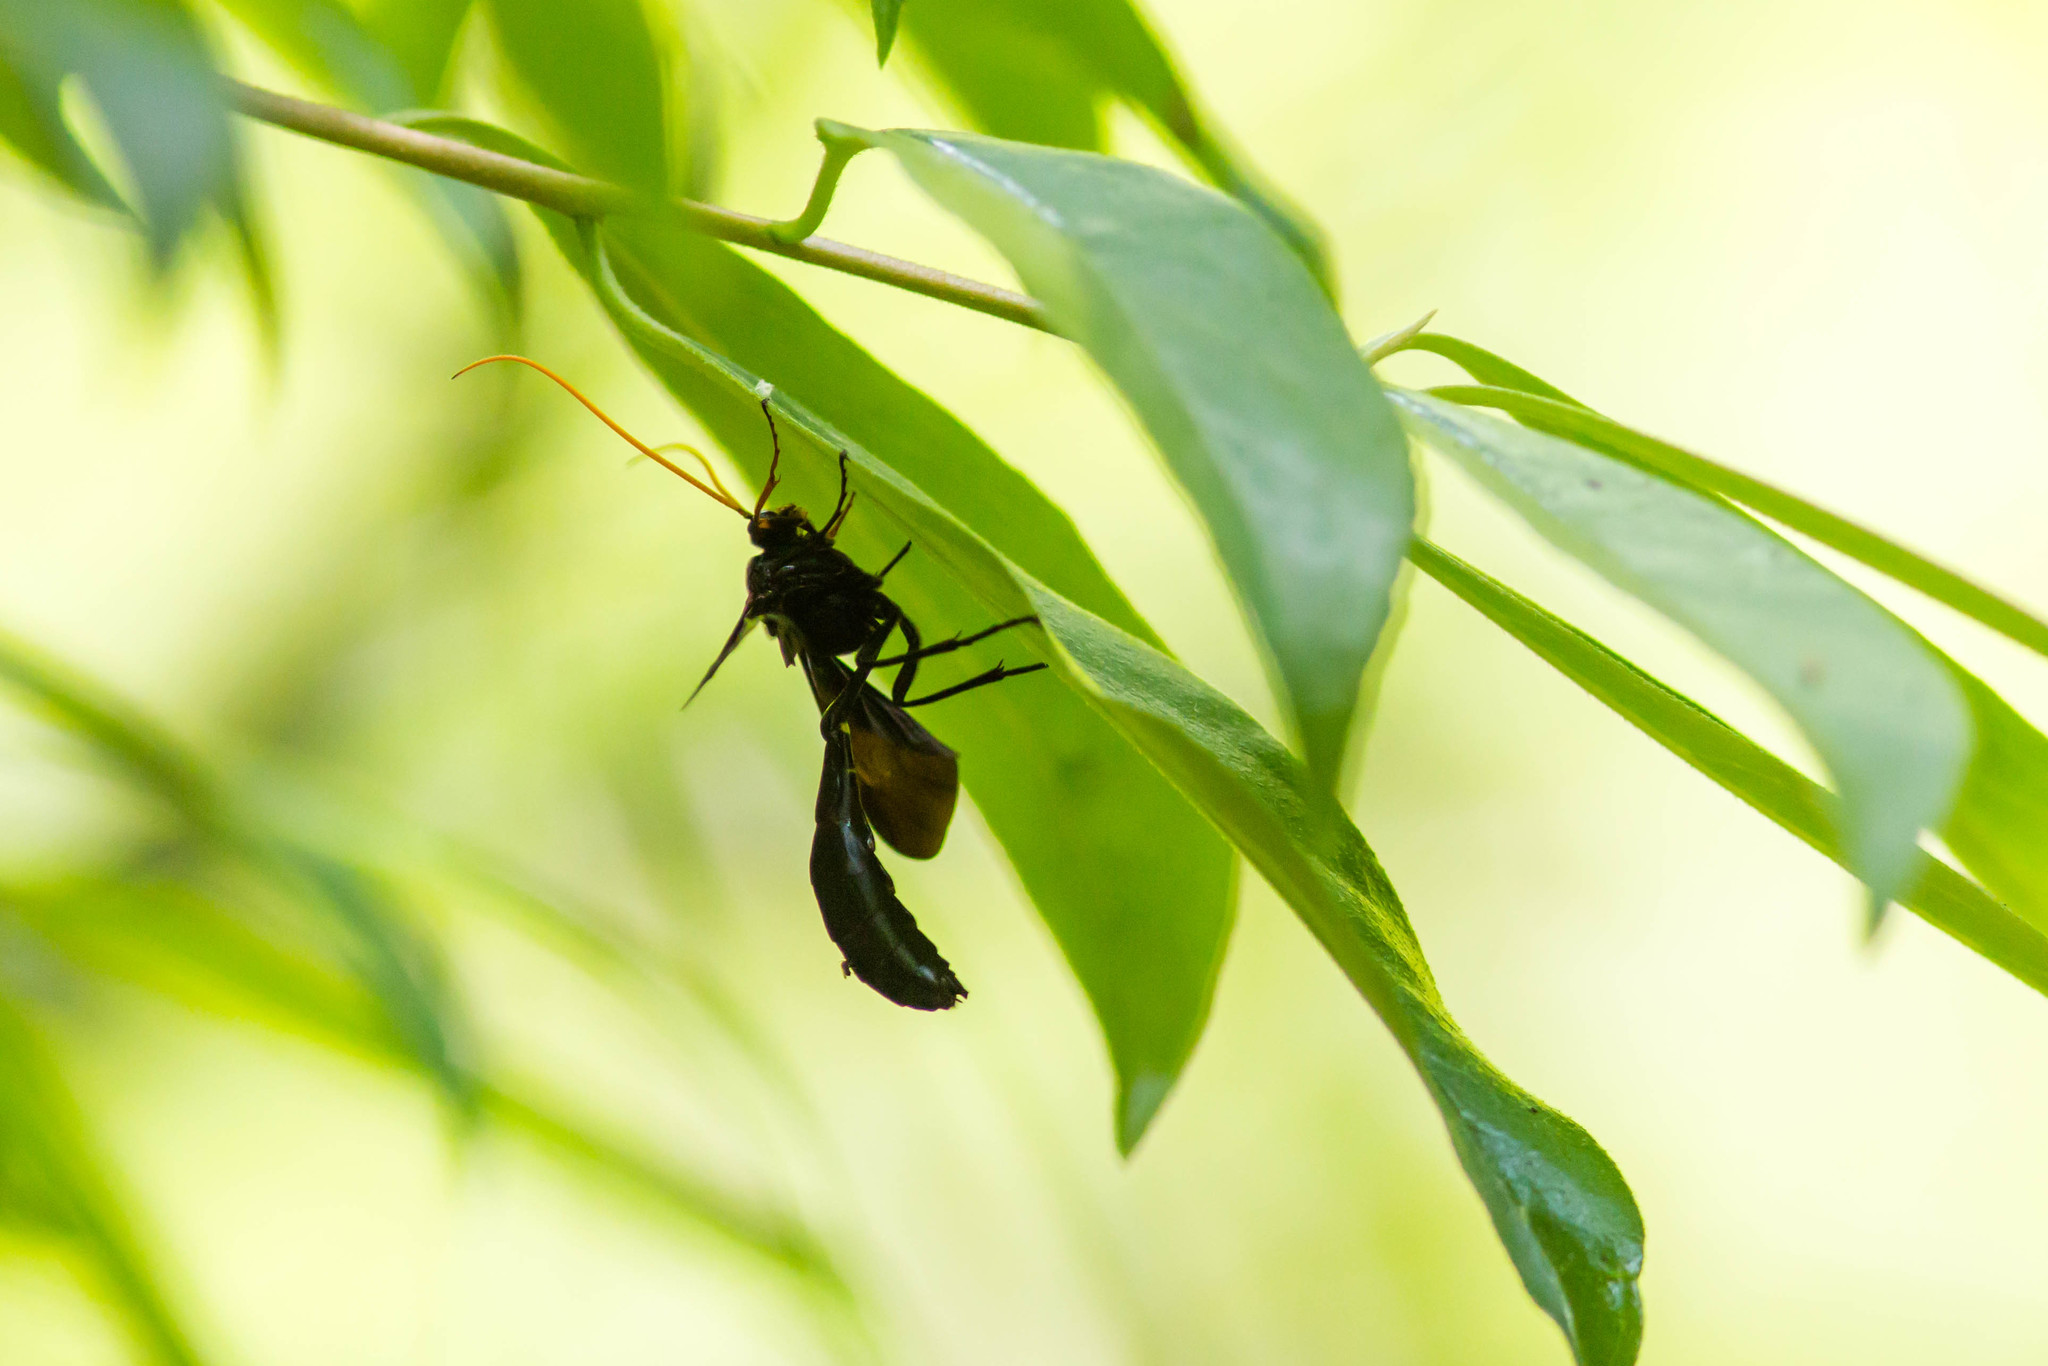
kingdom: Animalia
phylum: Arthropoda
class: Insecta
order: Hymenoptera
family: Ichneumonidae
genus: Thyreodon
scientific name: Thyreodon atricolor
